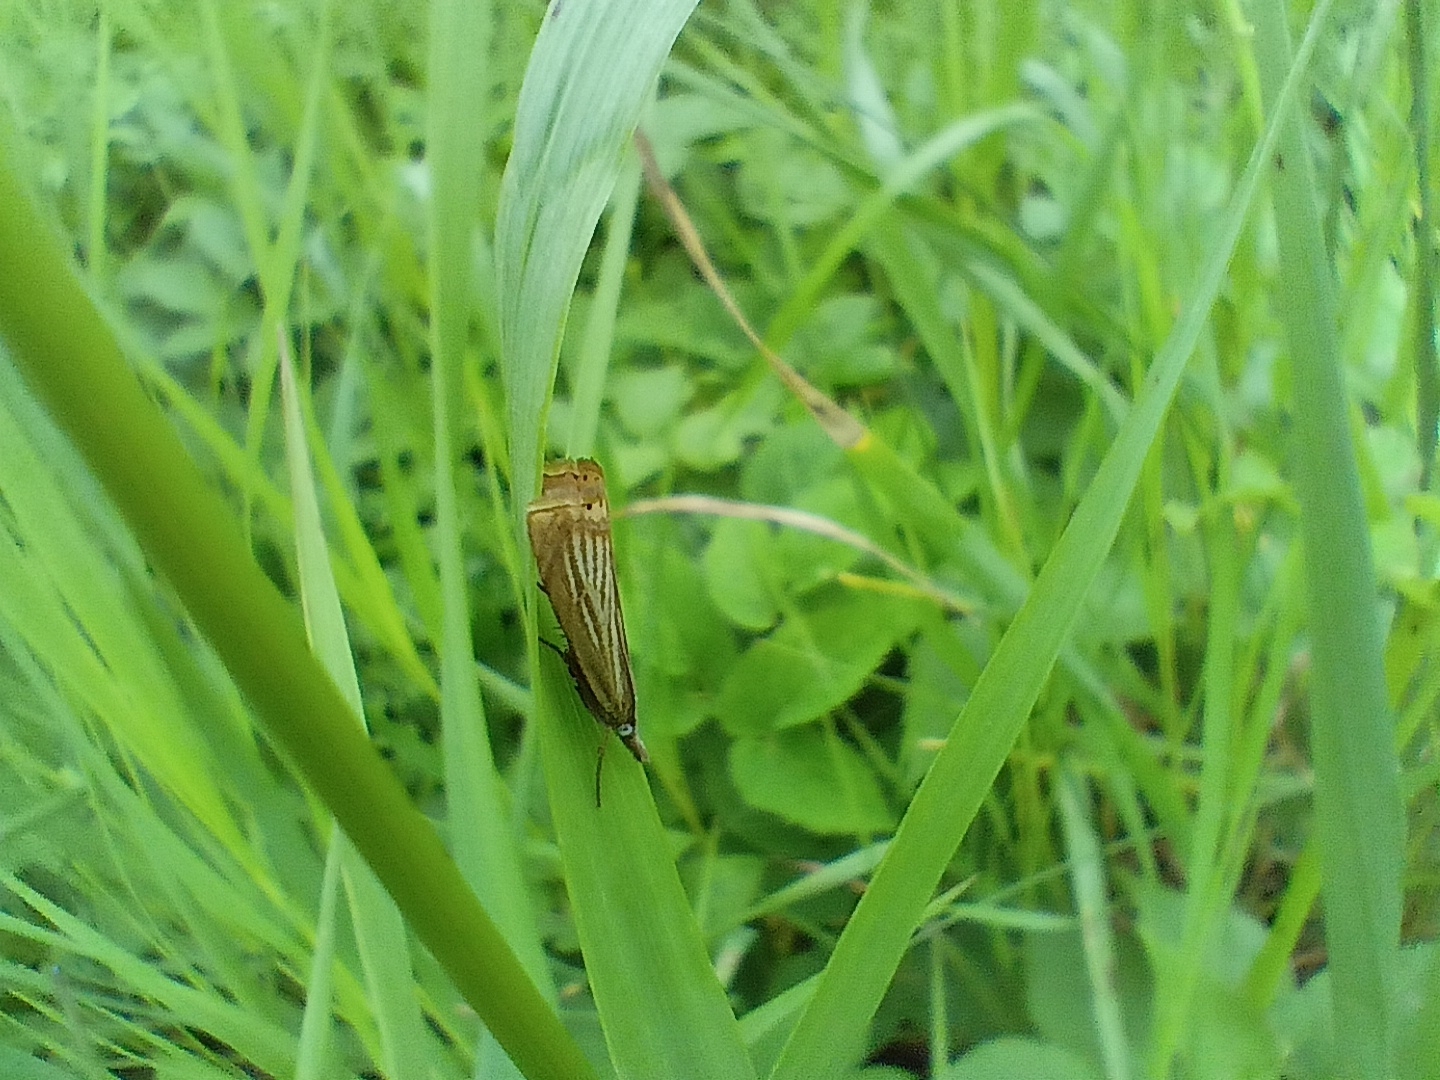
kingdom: Animalia
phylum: Arthropoda
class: Insecta
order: Lepidoptera
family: Crambidae
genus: Chrysoteuchia
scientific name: Chrysoteuchia culmella
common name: Garden grass-veneer
